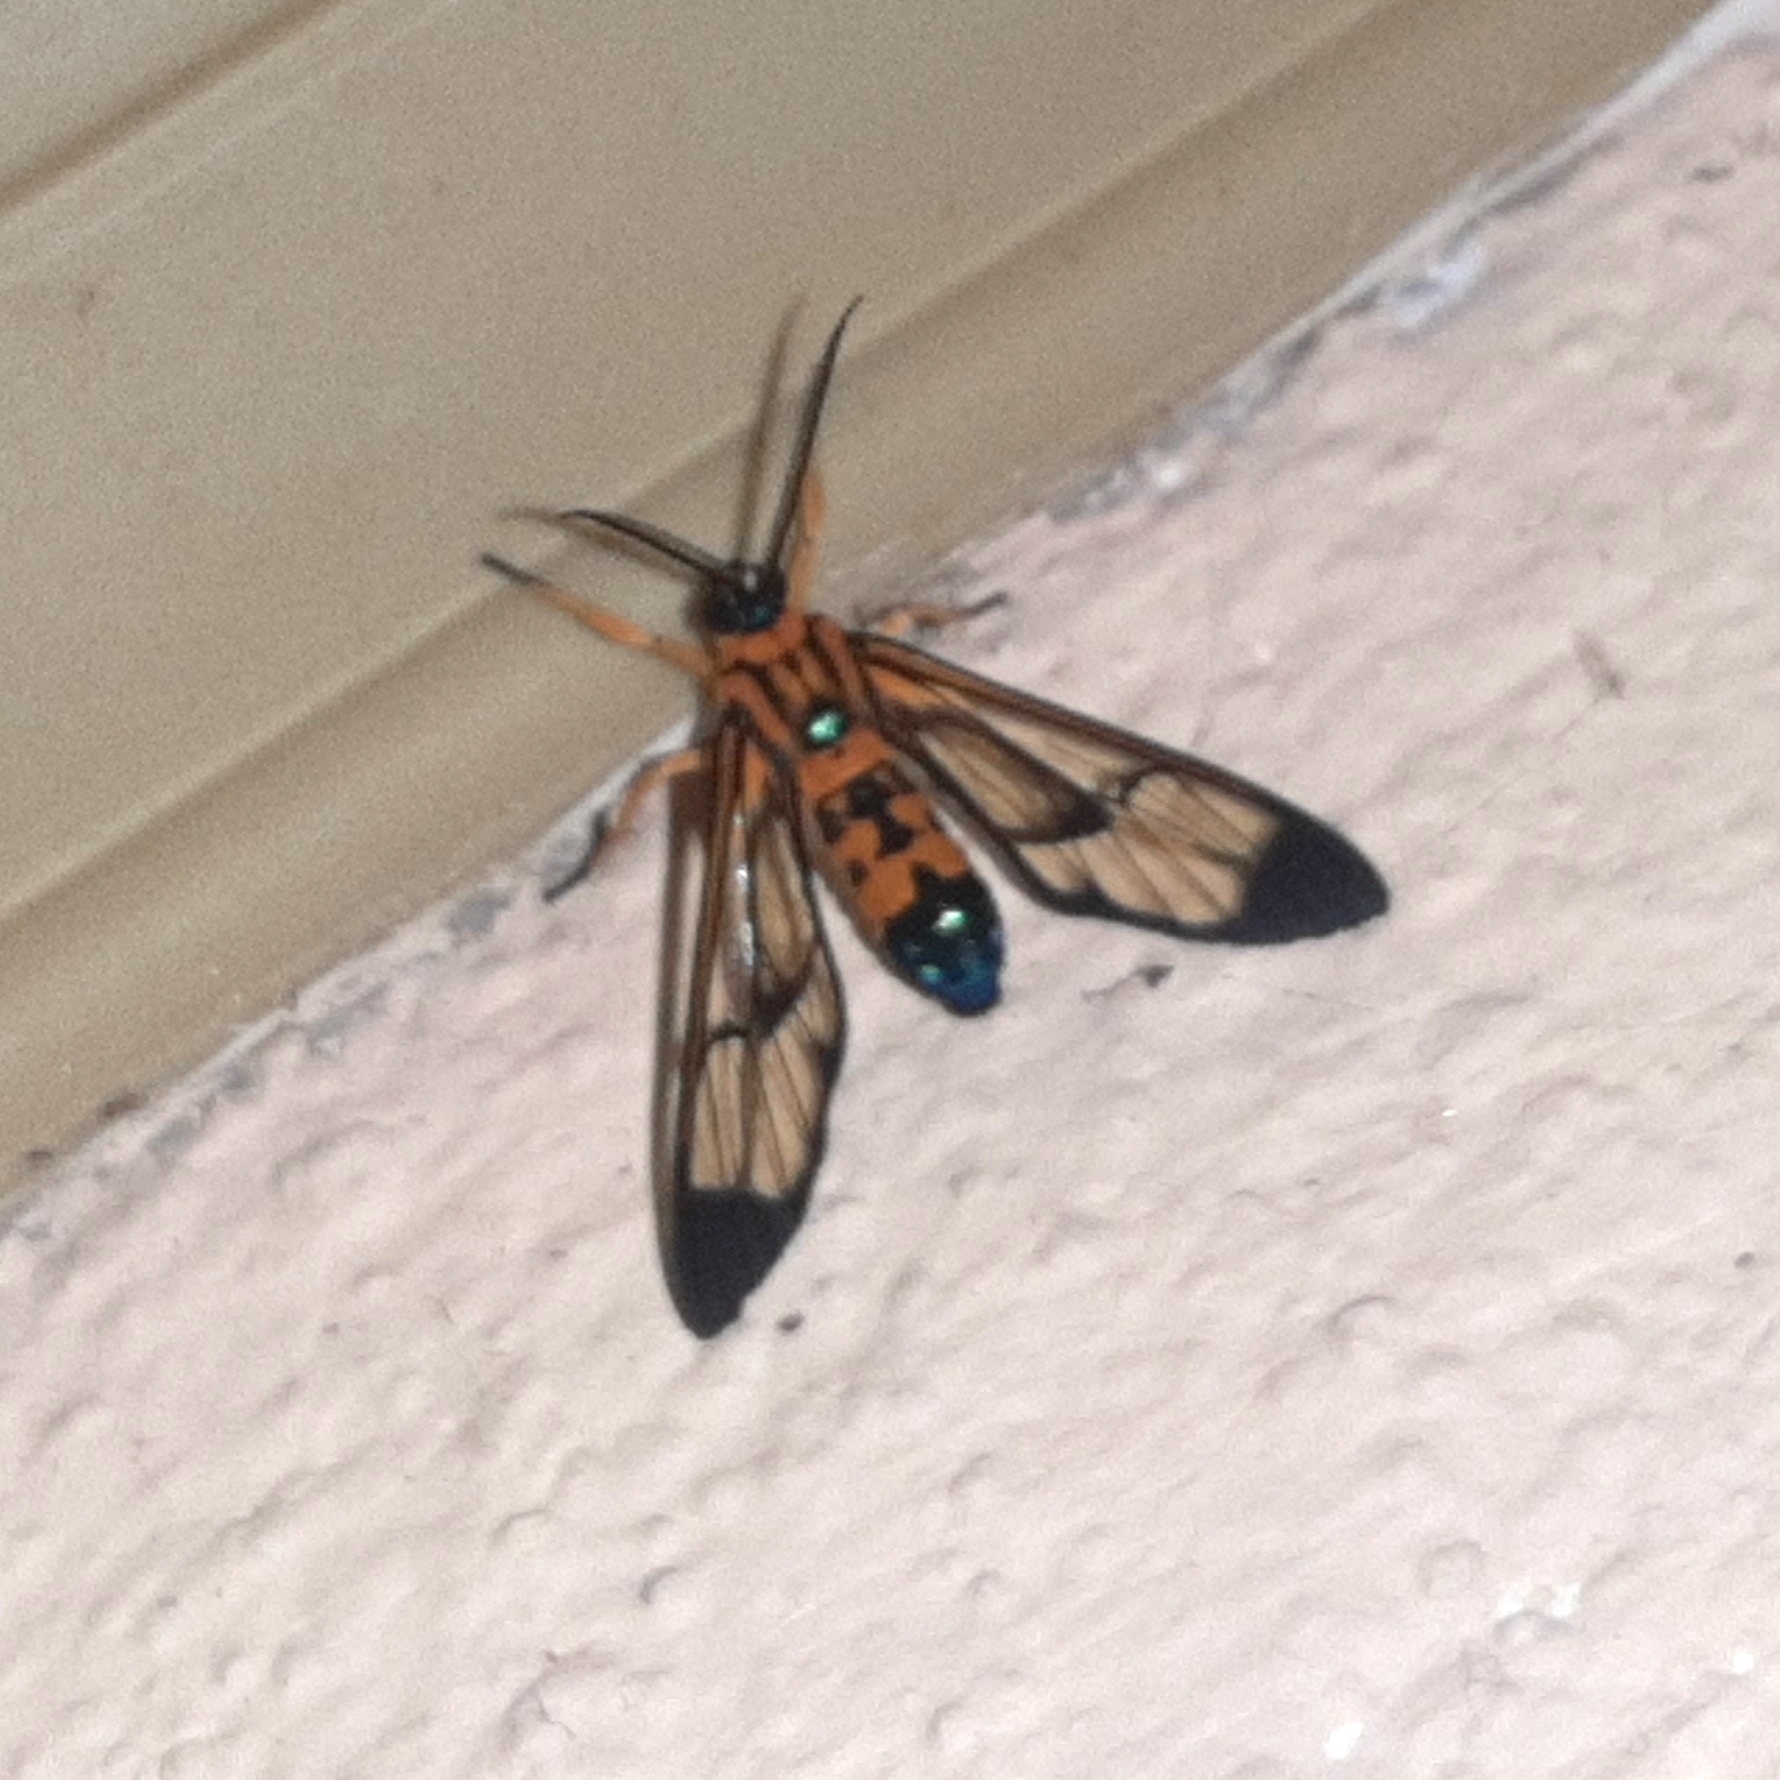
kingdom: Animalia
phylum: Arthropoda
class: Insecta
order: Lepidoptera
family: Erebidae
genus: Pheia
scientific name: Pheia elegans
